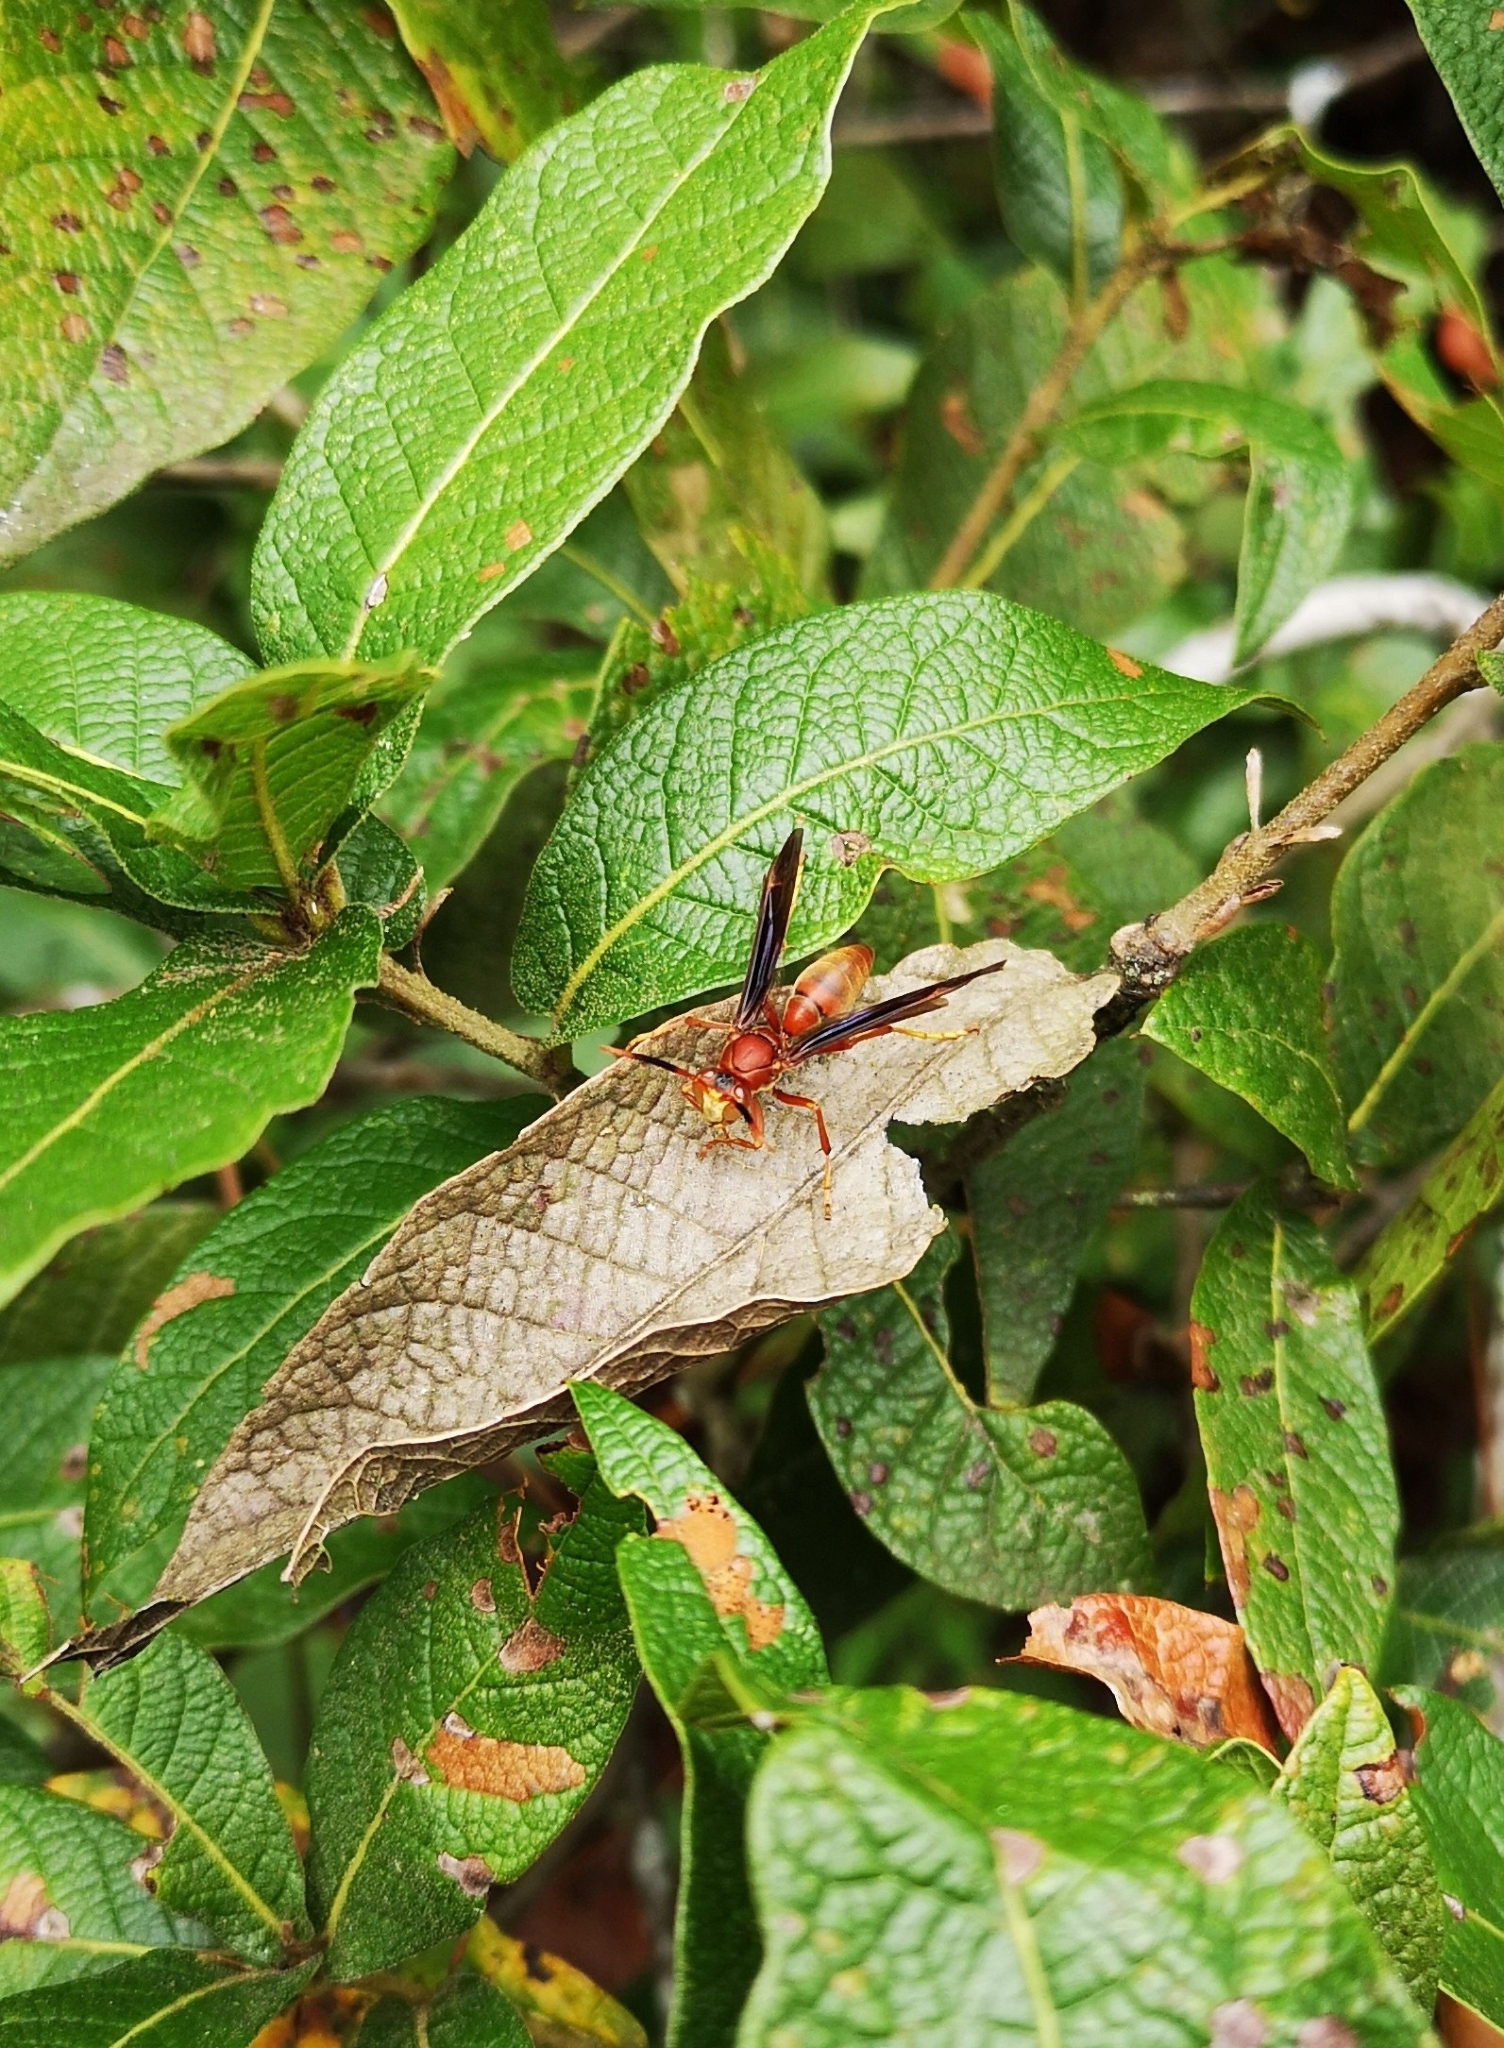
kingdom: Animalia
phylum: Arthropoda
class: Insecta
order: Hymenoptera
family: Eumenidae
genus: Polistes
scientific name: Polistes canadensis
